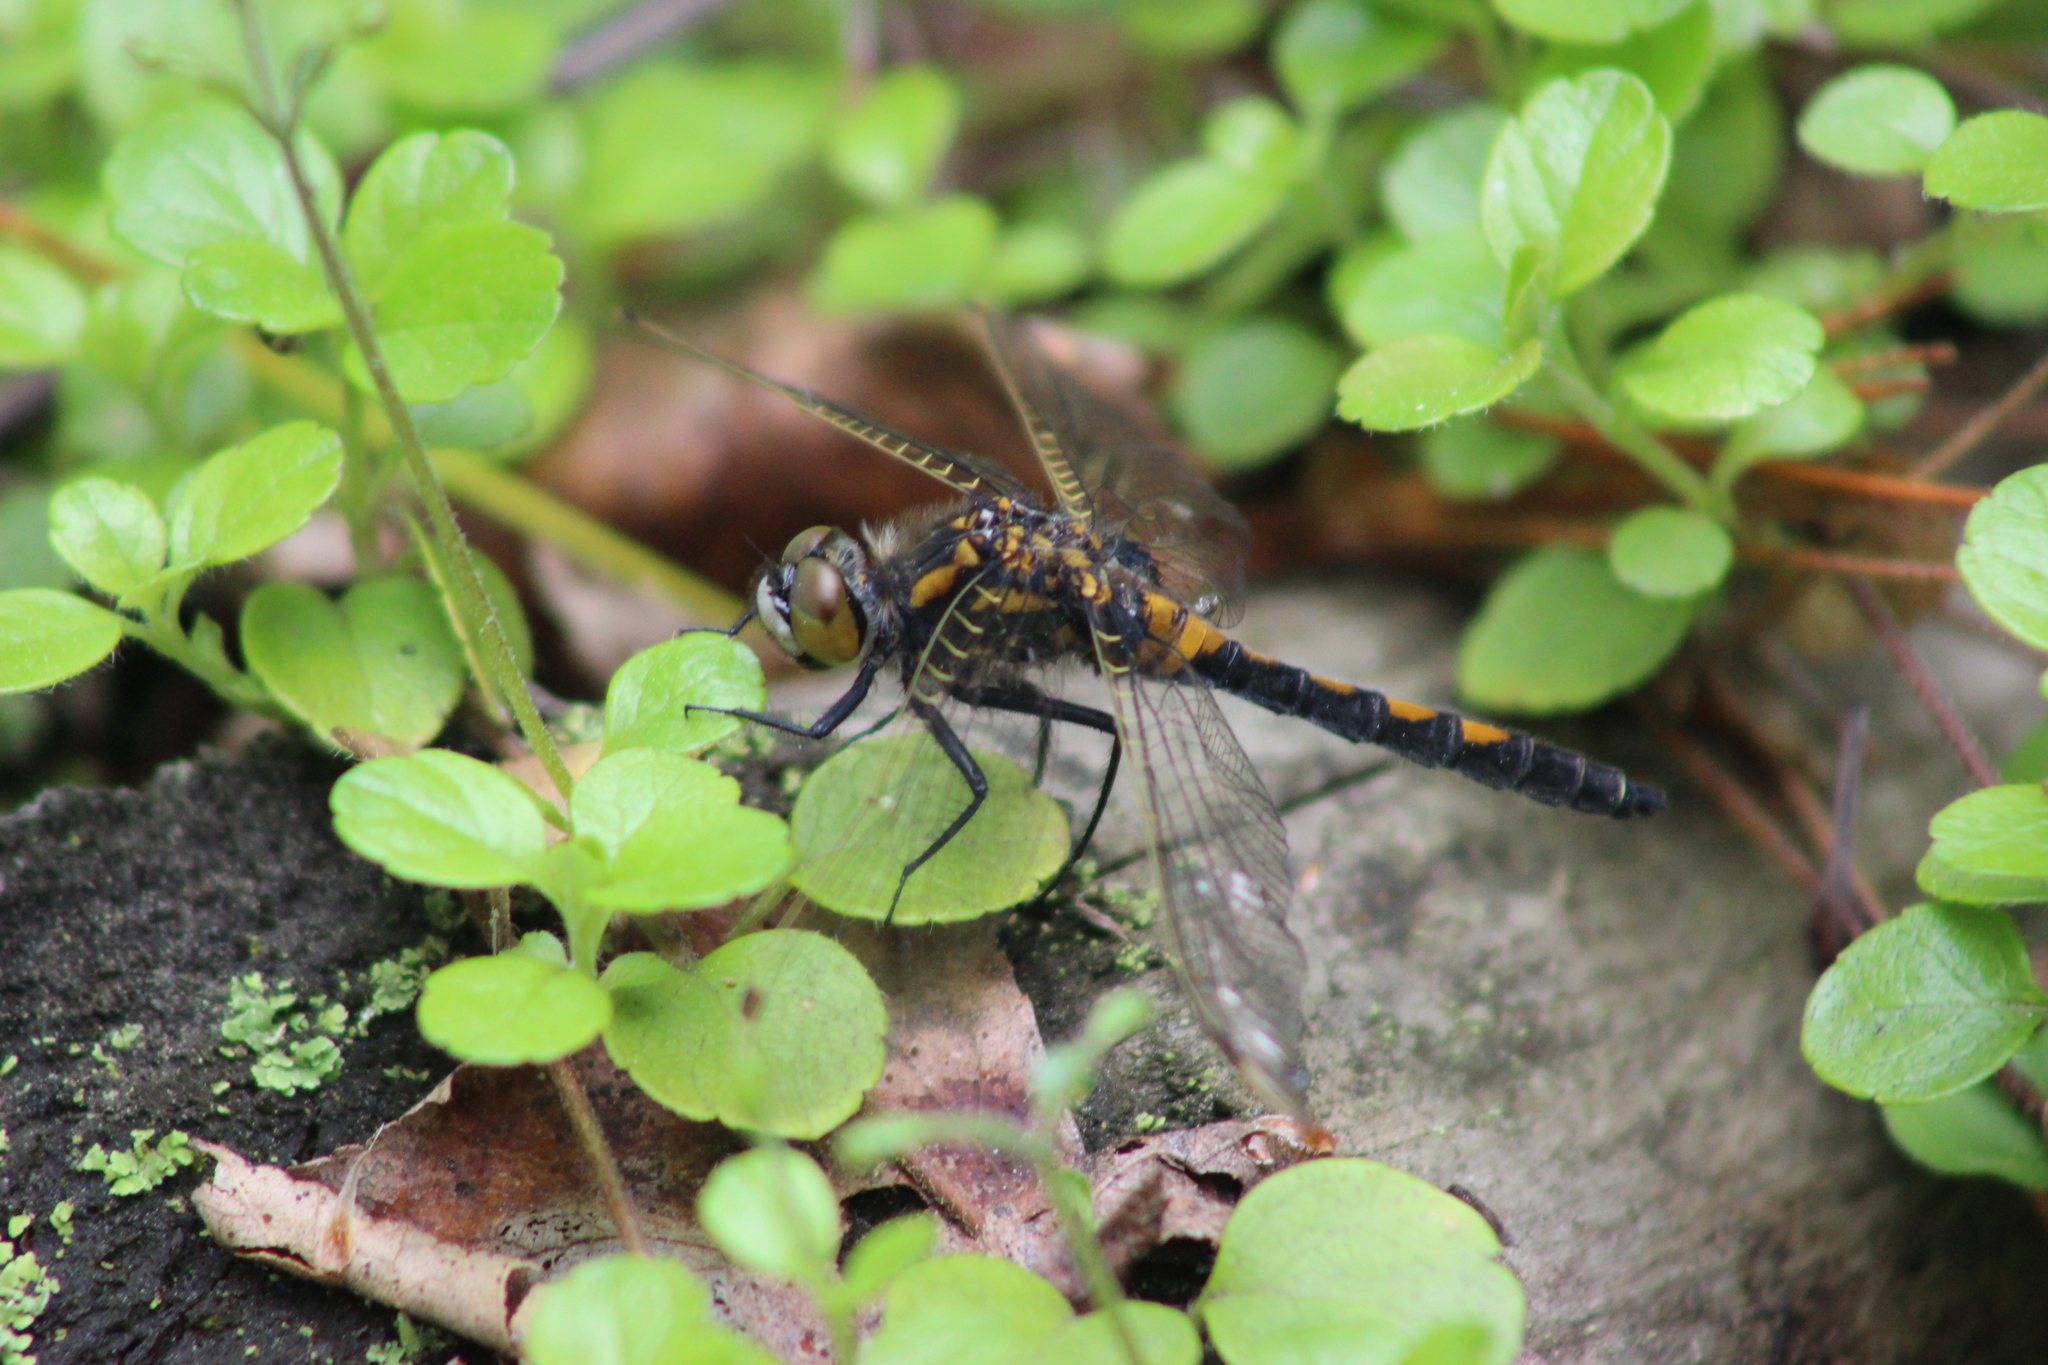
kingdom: Animalia
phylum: Arthropoda
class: Insecta
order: Odonata
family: Libellulidae
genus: Leucorrhinia
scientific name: Leucorrhinia rubicunda
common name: Ruby whiteface
